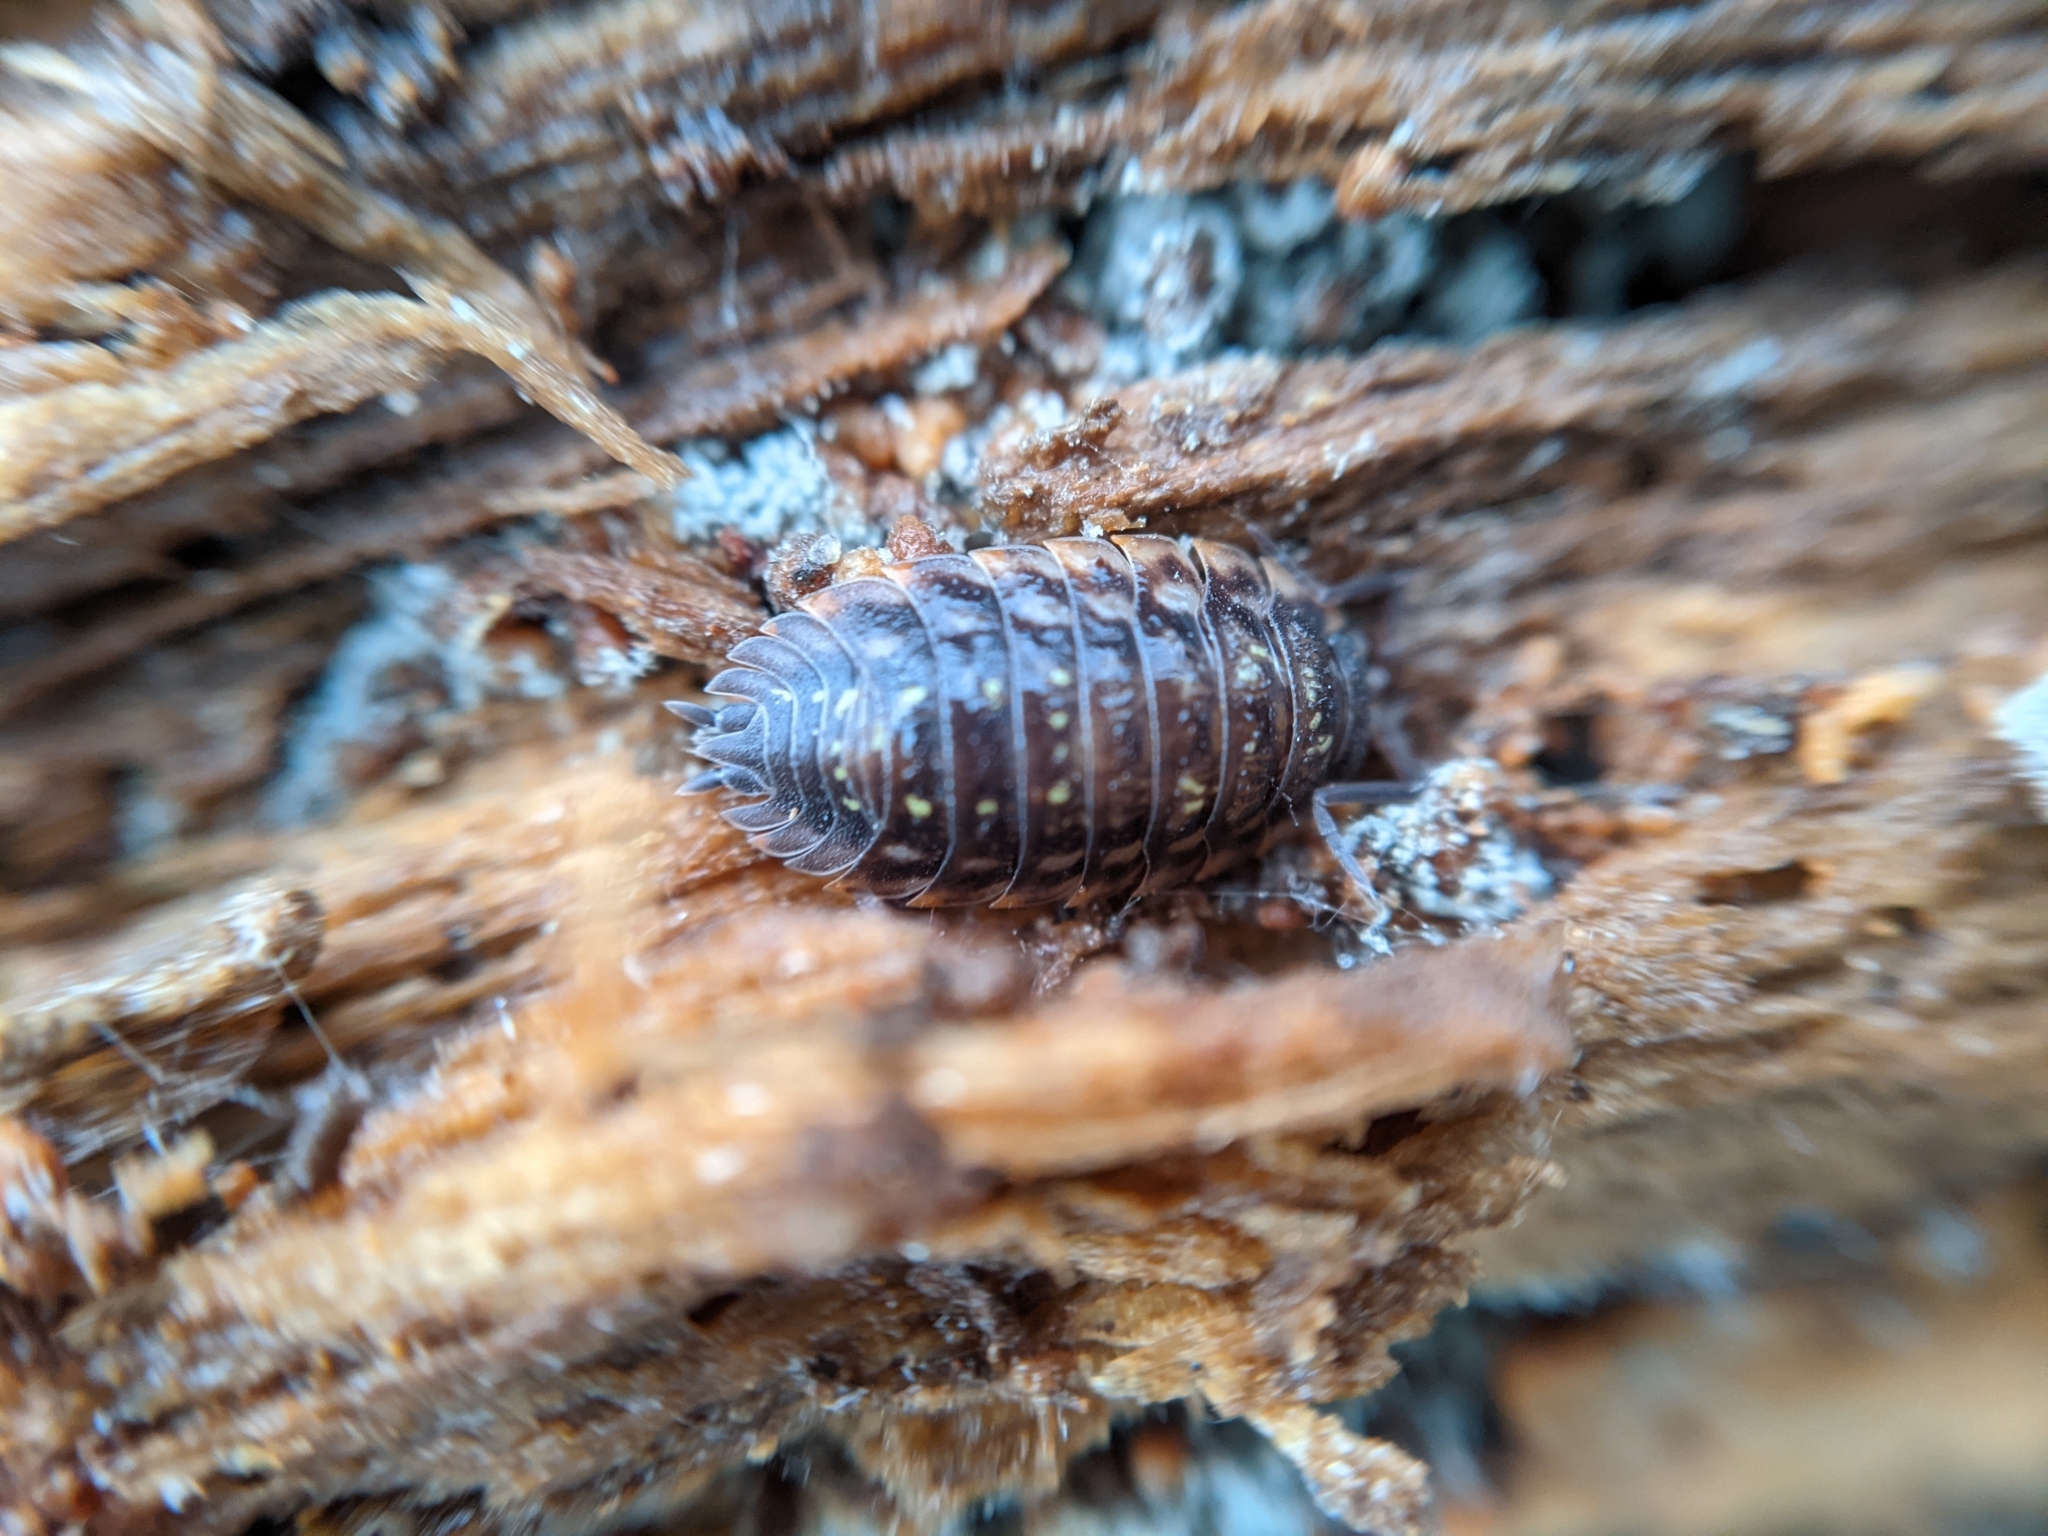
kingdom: Animalia
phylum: Arthropoda
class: Malacostraca
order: Isopoda
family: Oniscidae
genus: Oniscus
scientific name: Oniscus asellus
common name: Common shiny woodlouse
